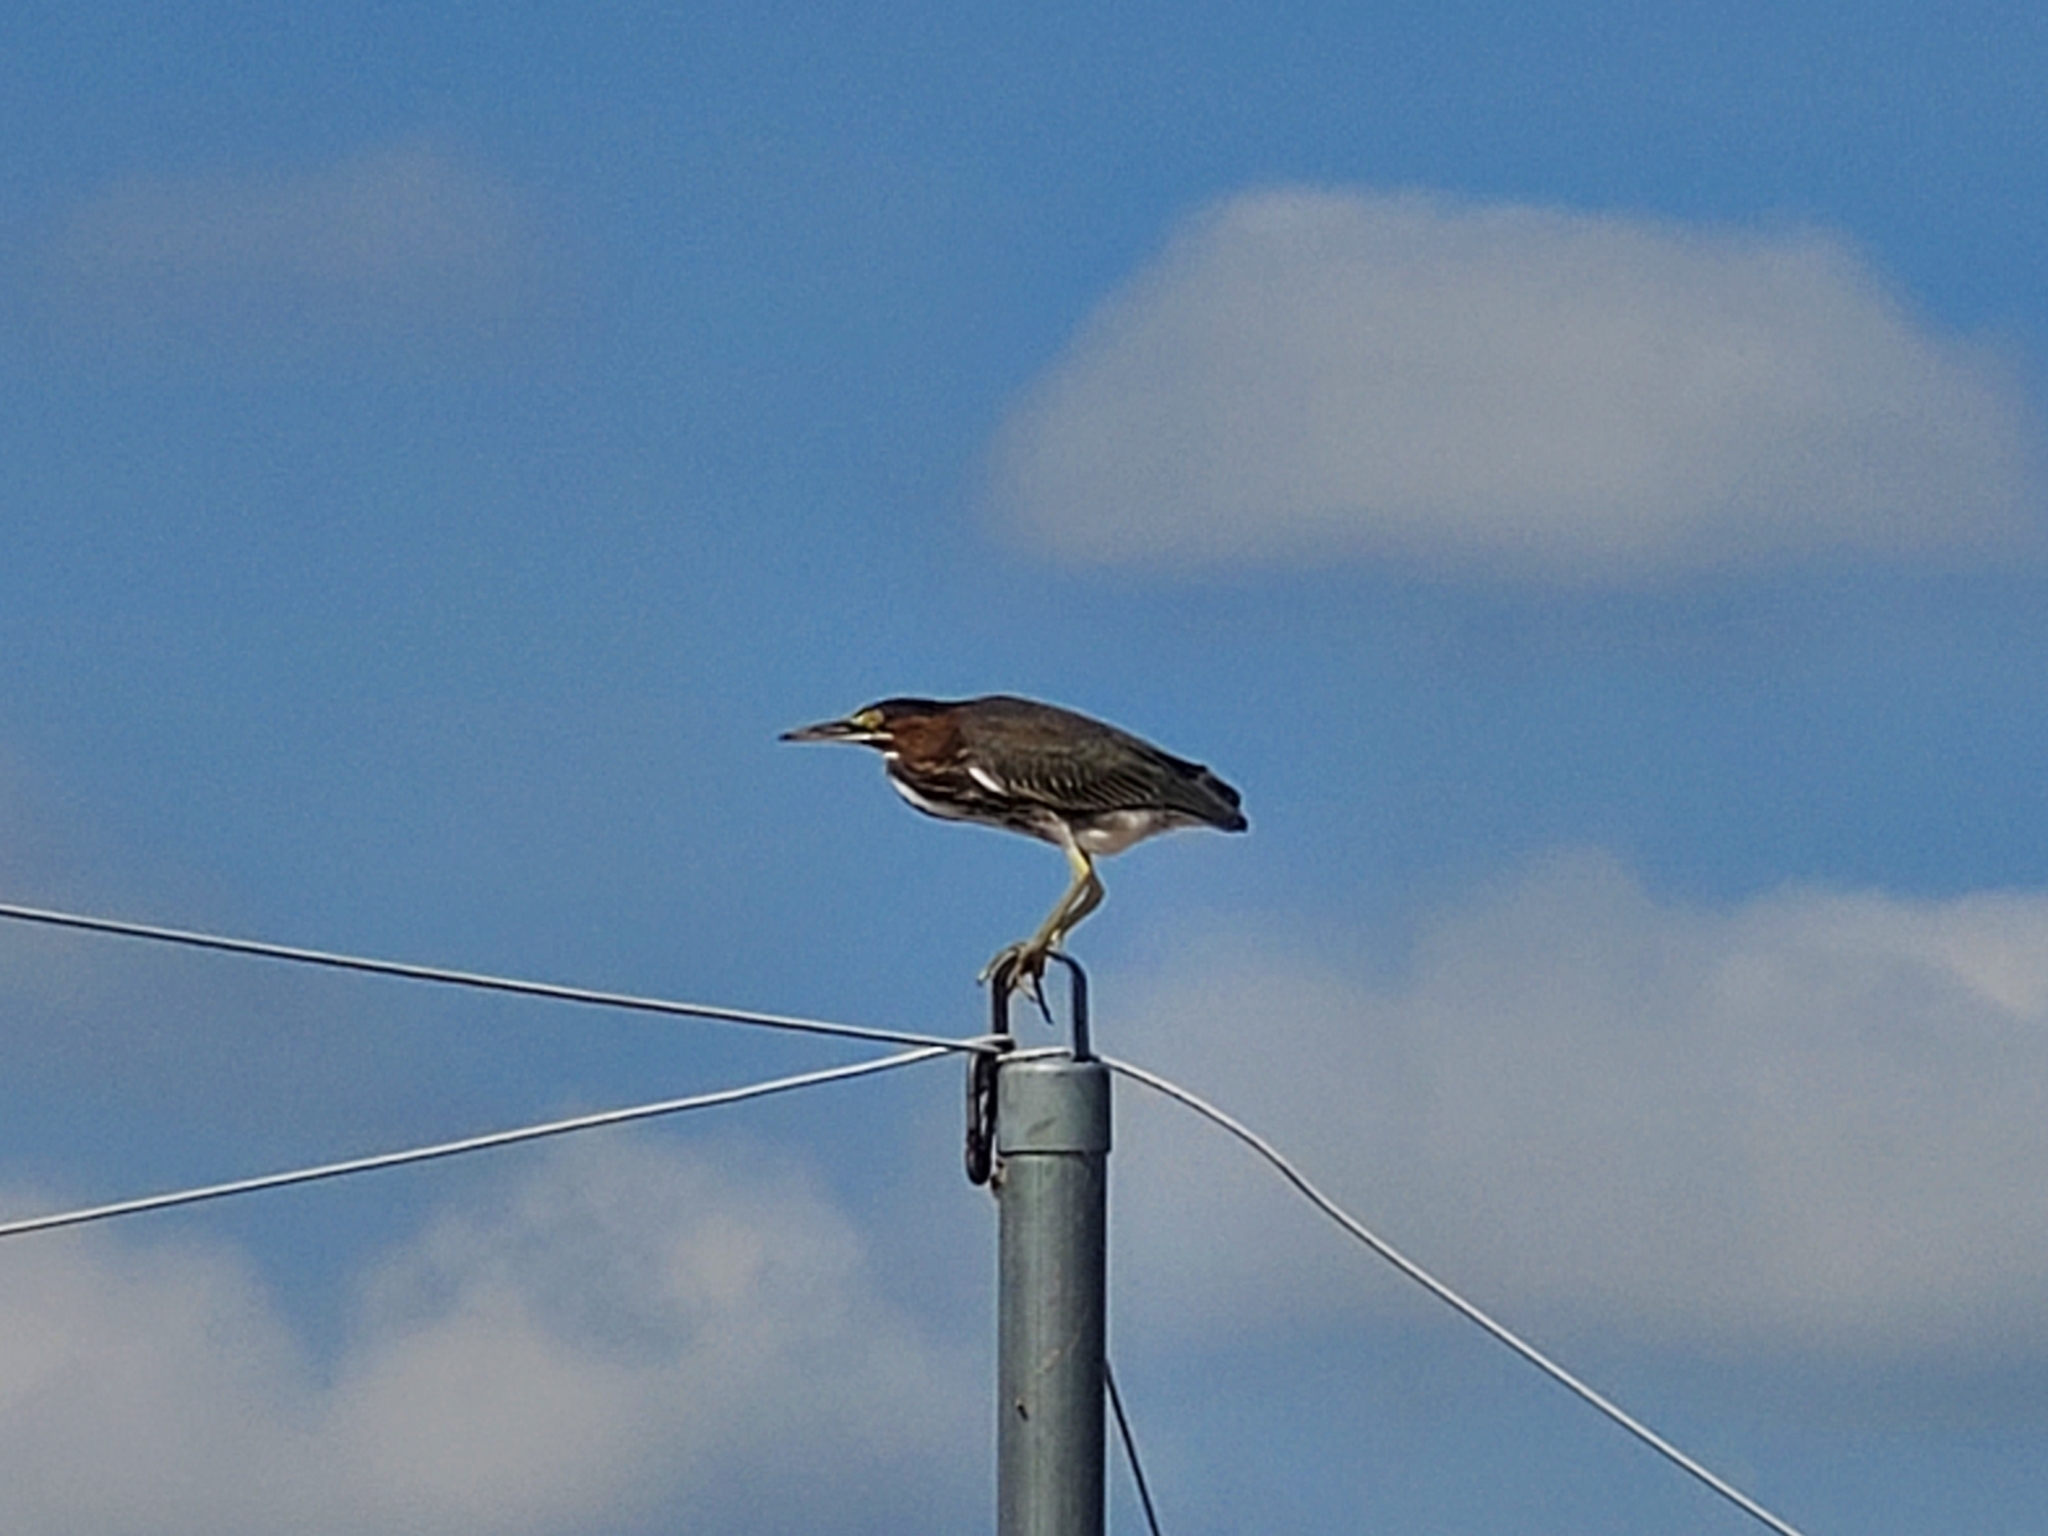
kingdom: Animalia
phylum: Chordata
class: Aves
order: Pelecaniformes
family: Ardeidae
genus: Butorides
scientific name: Butorides virescens
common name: Green heron
